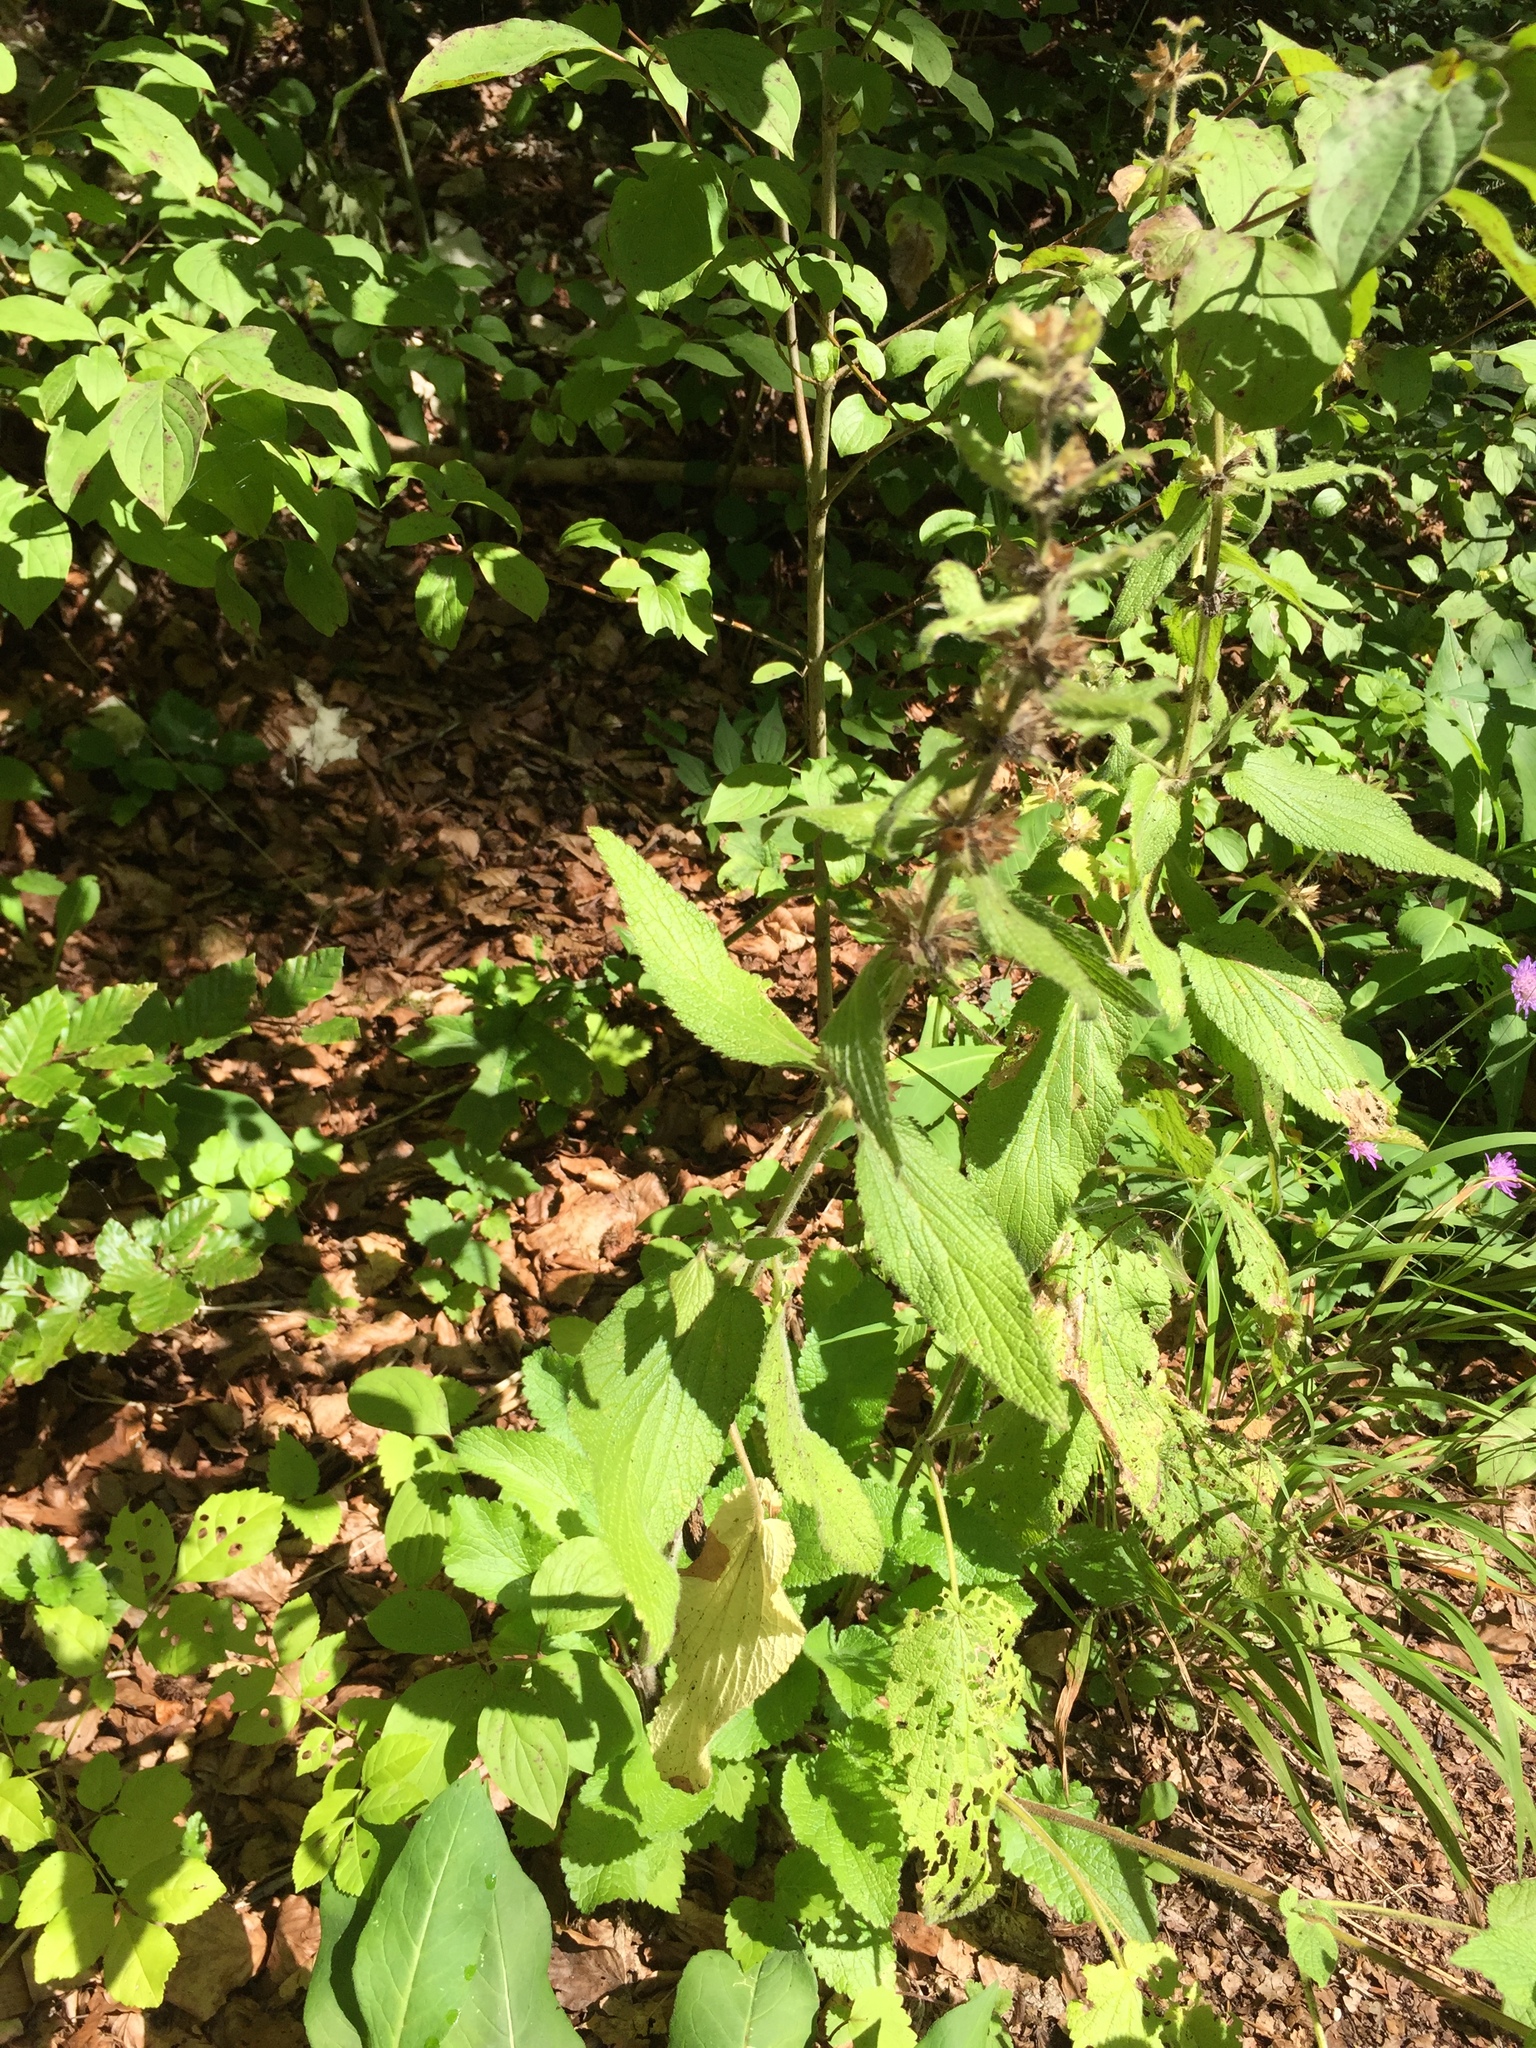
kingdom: Plantae
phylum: Tracheophyta
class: Magnoliopsida
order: Lamiales
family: Lamiaceae
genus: Stachys
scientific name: Stachys alpina
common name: Limestone woundwort
